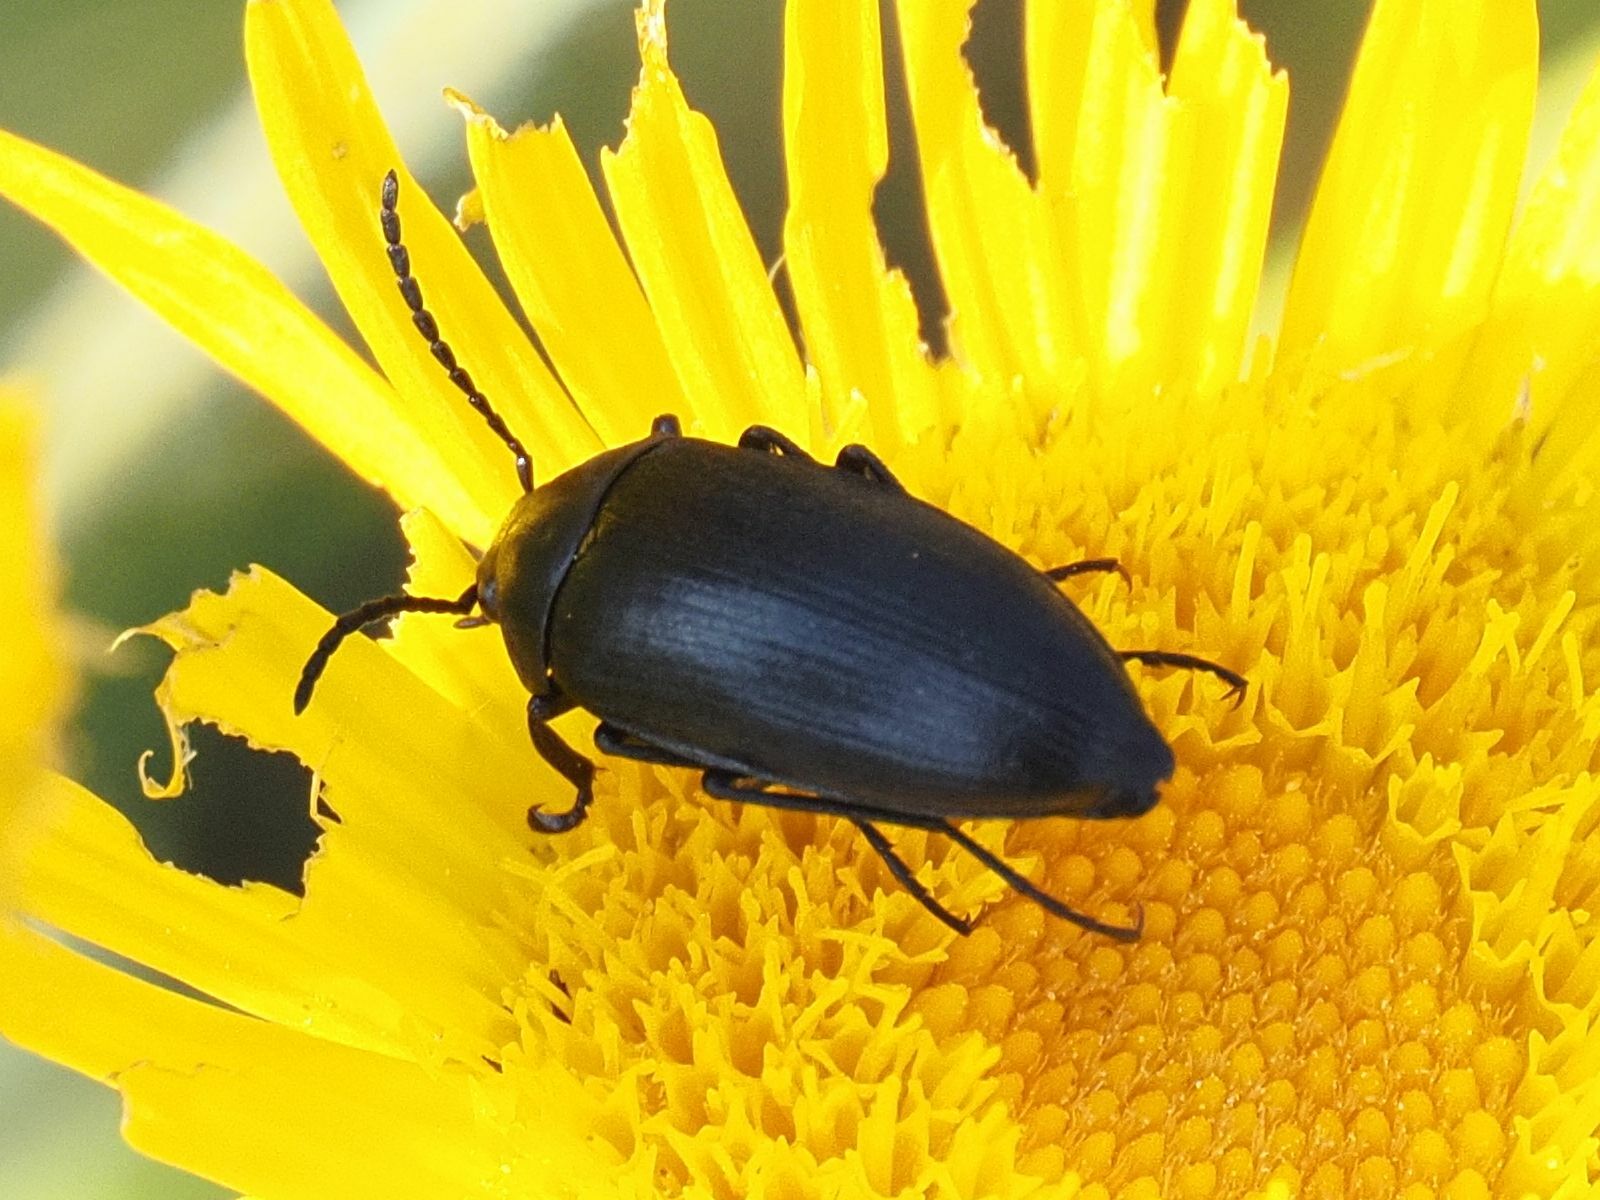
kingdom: Animalia
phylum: Arthropoda
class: Insecta
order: Coleoptera
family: Tenebrionidae
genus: Podonta
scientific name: Podonta nigrita
